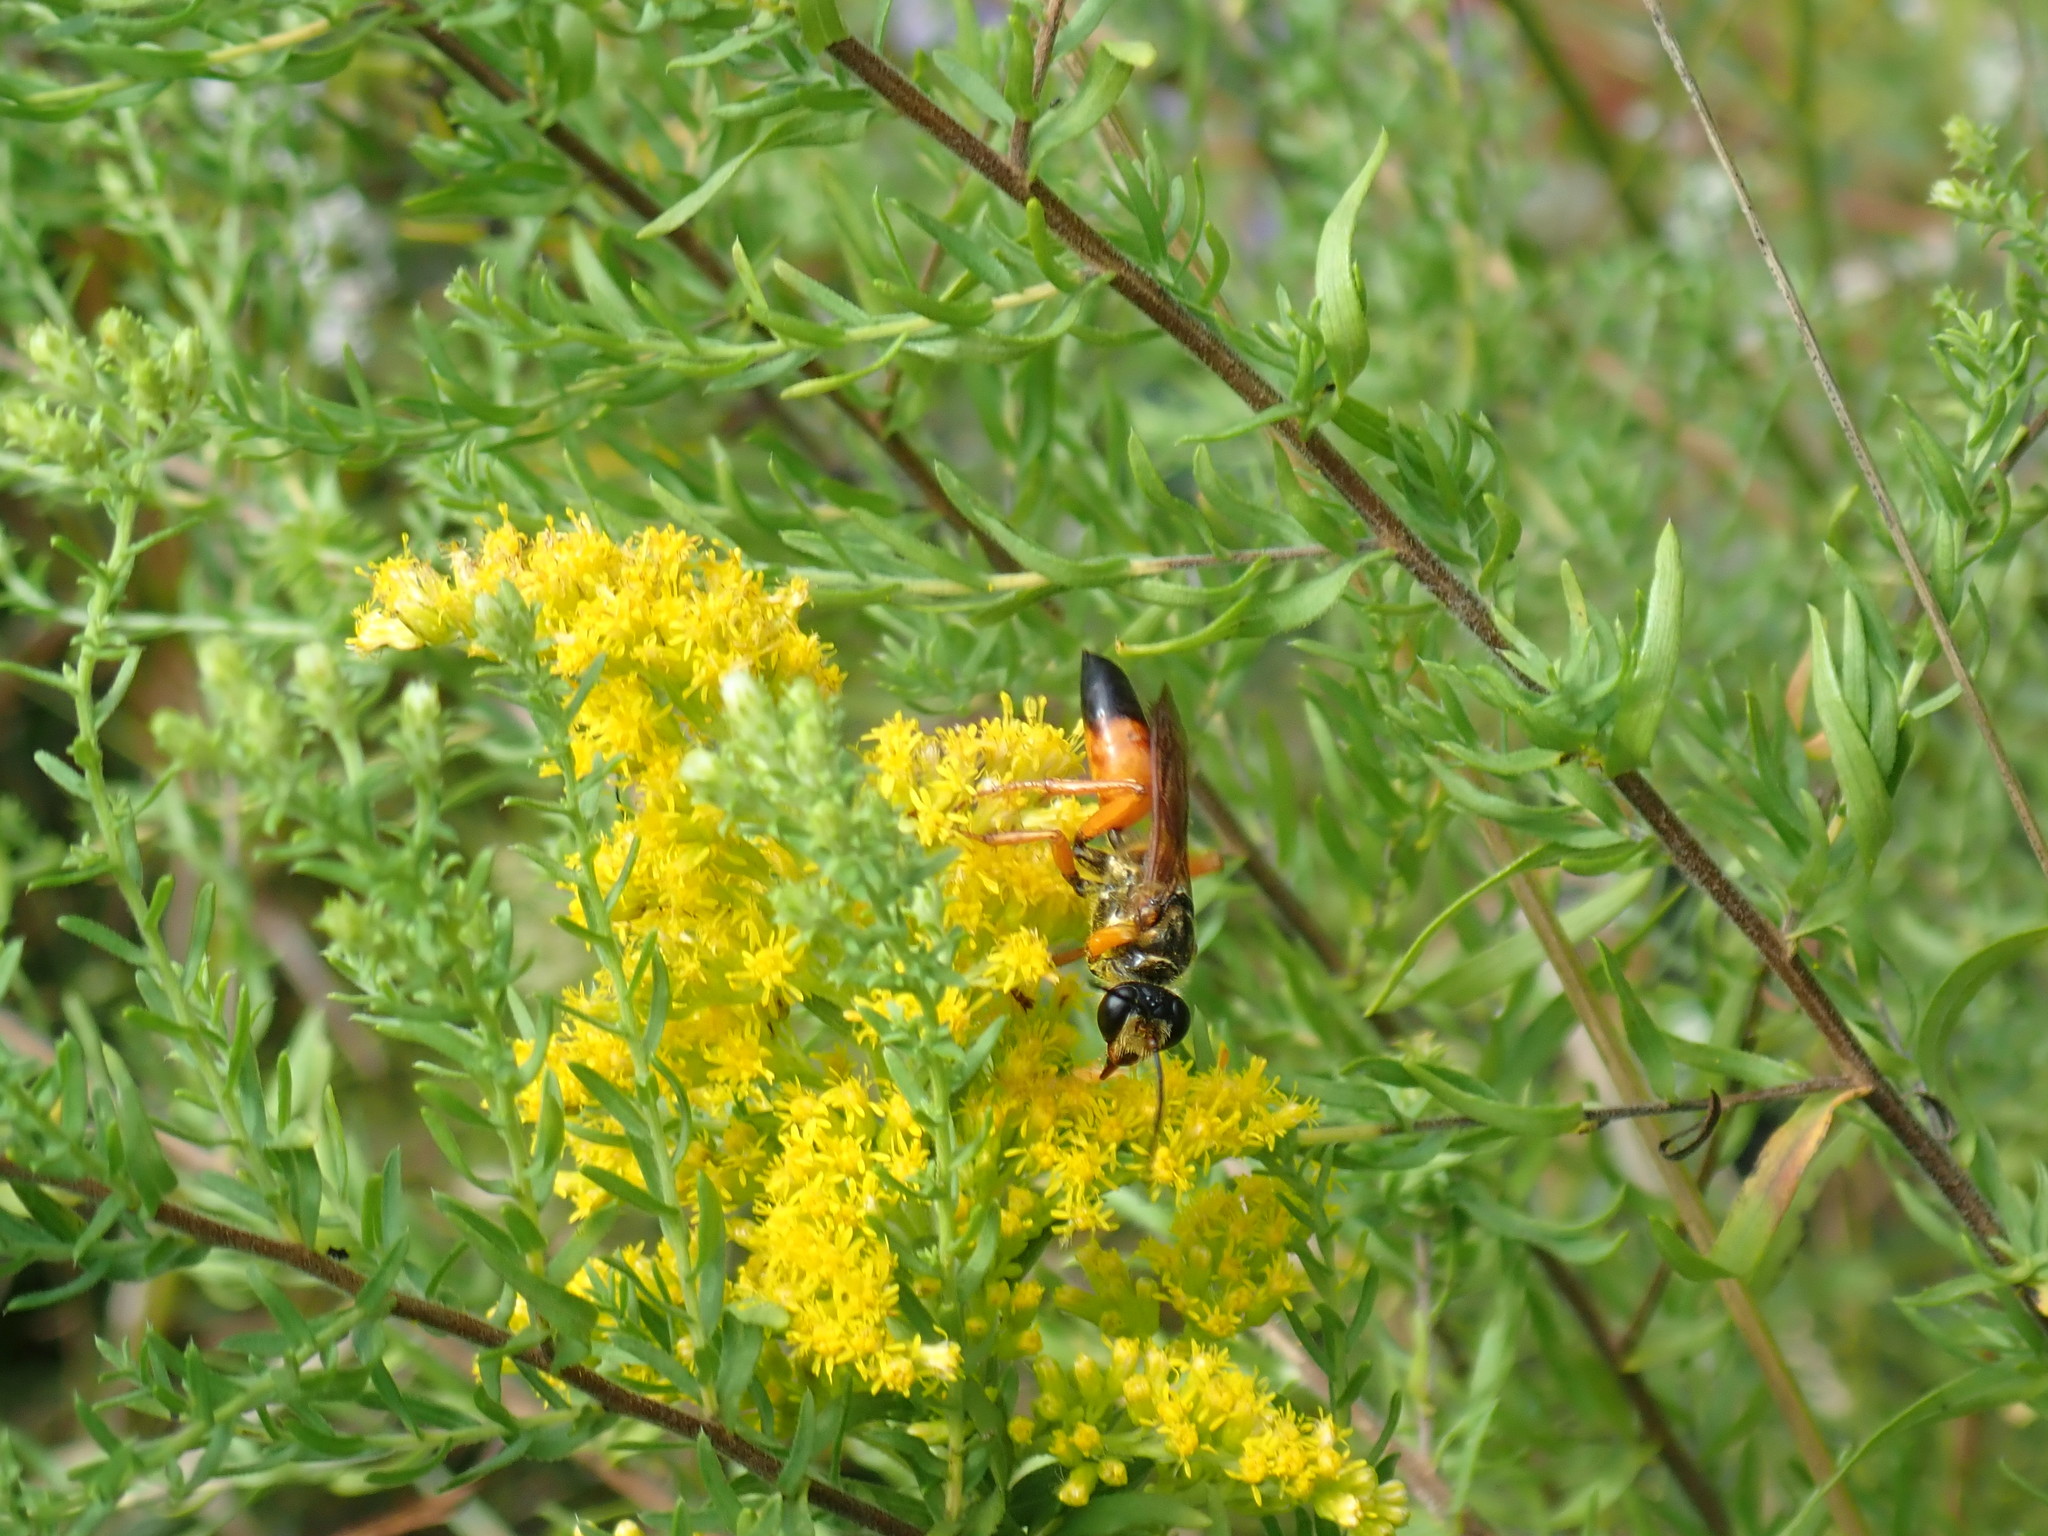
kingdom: Animalia
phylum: Arthropoda
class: Insecta
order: Hymenoptera
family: Sphecidae
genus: Sphex
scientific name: Sphex ichneumoneus
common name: Great golden digger wasp
